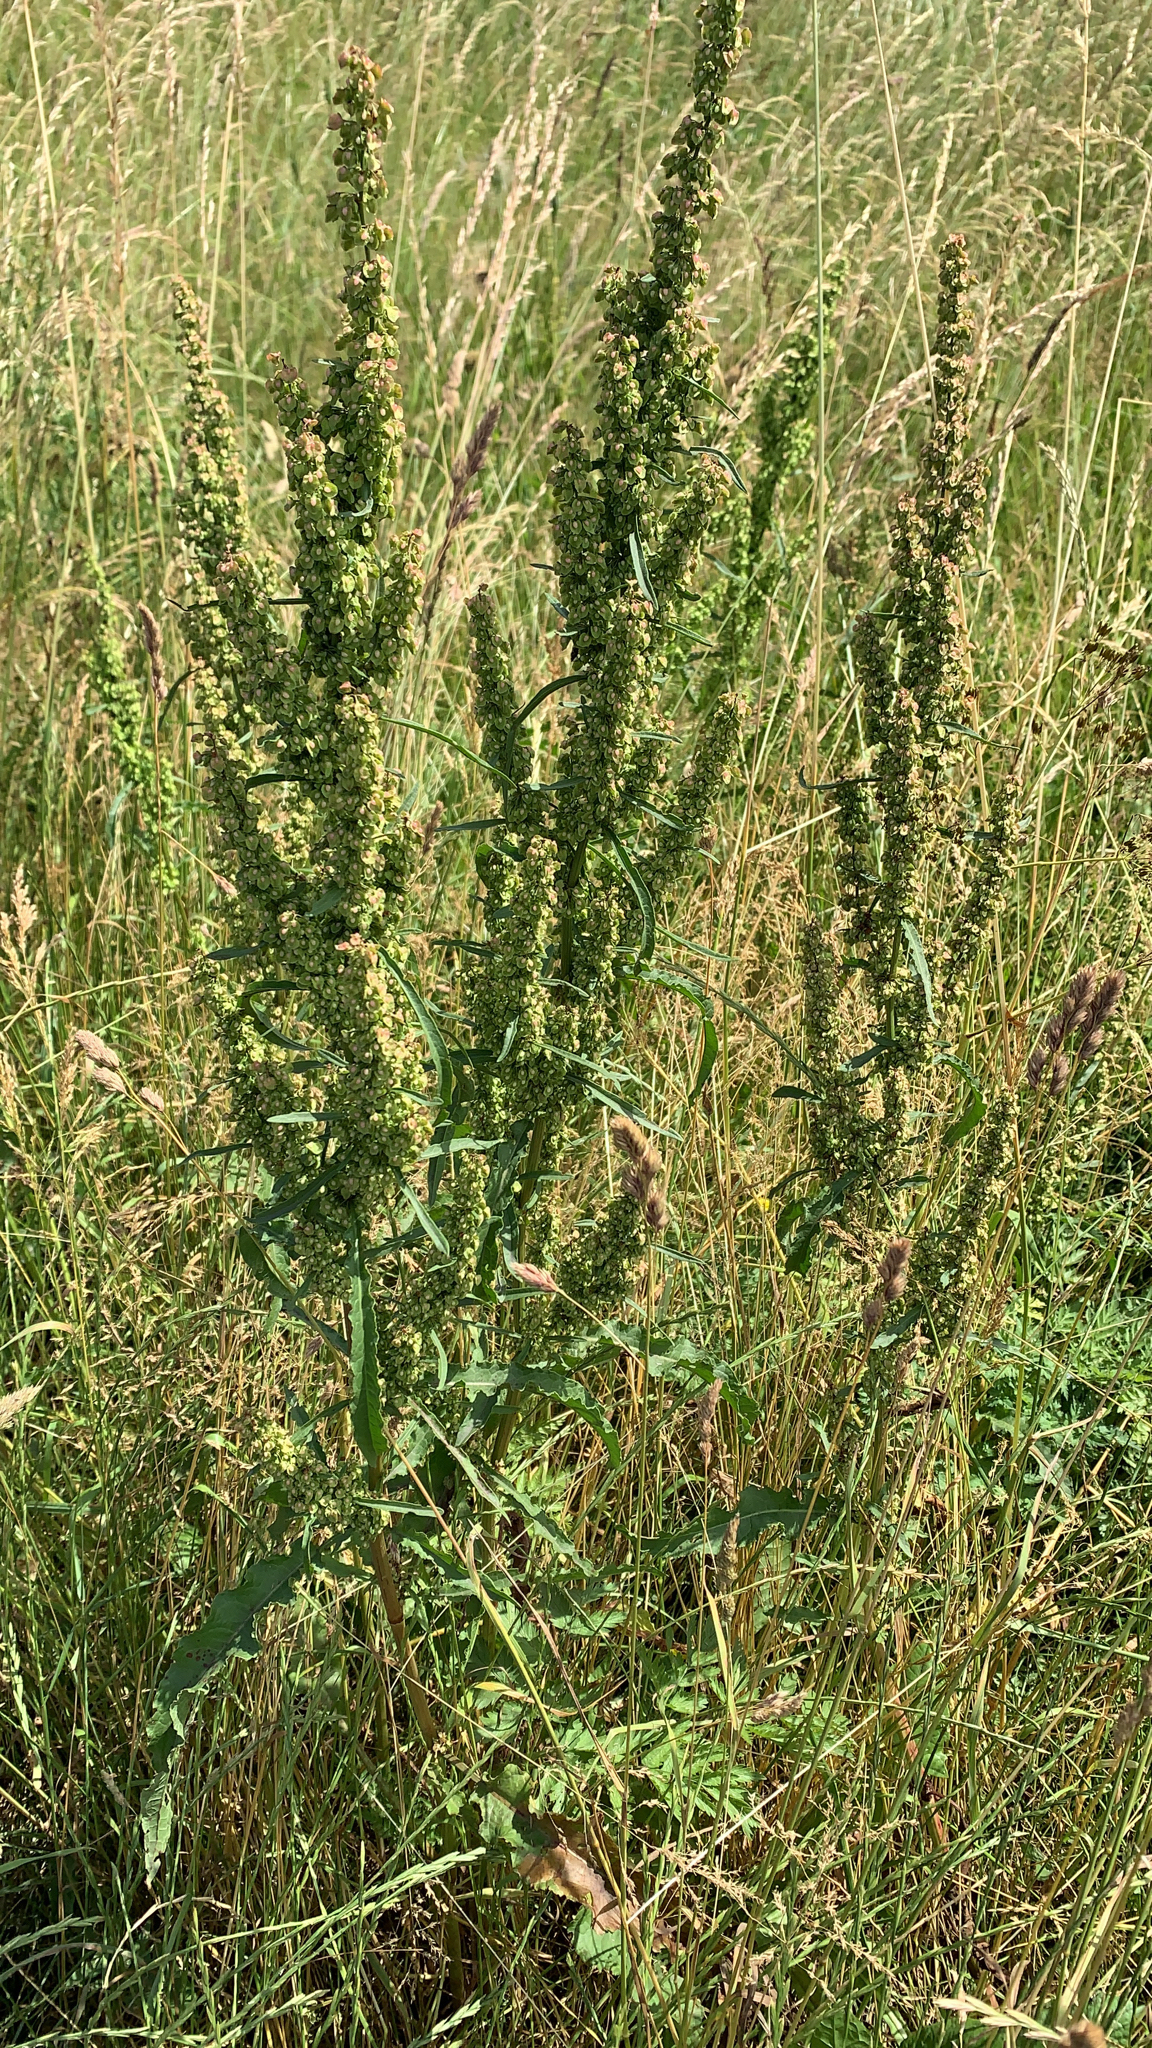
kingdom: Plantae
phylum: Tracheophyta
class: Magnoliopsida
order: Caryophyllales
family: Polygonaceae
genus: Rumex
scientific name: Rumex crispus
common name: Curled dock
